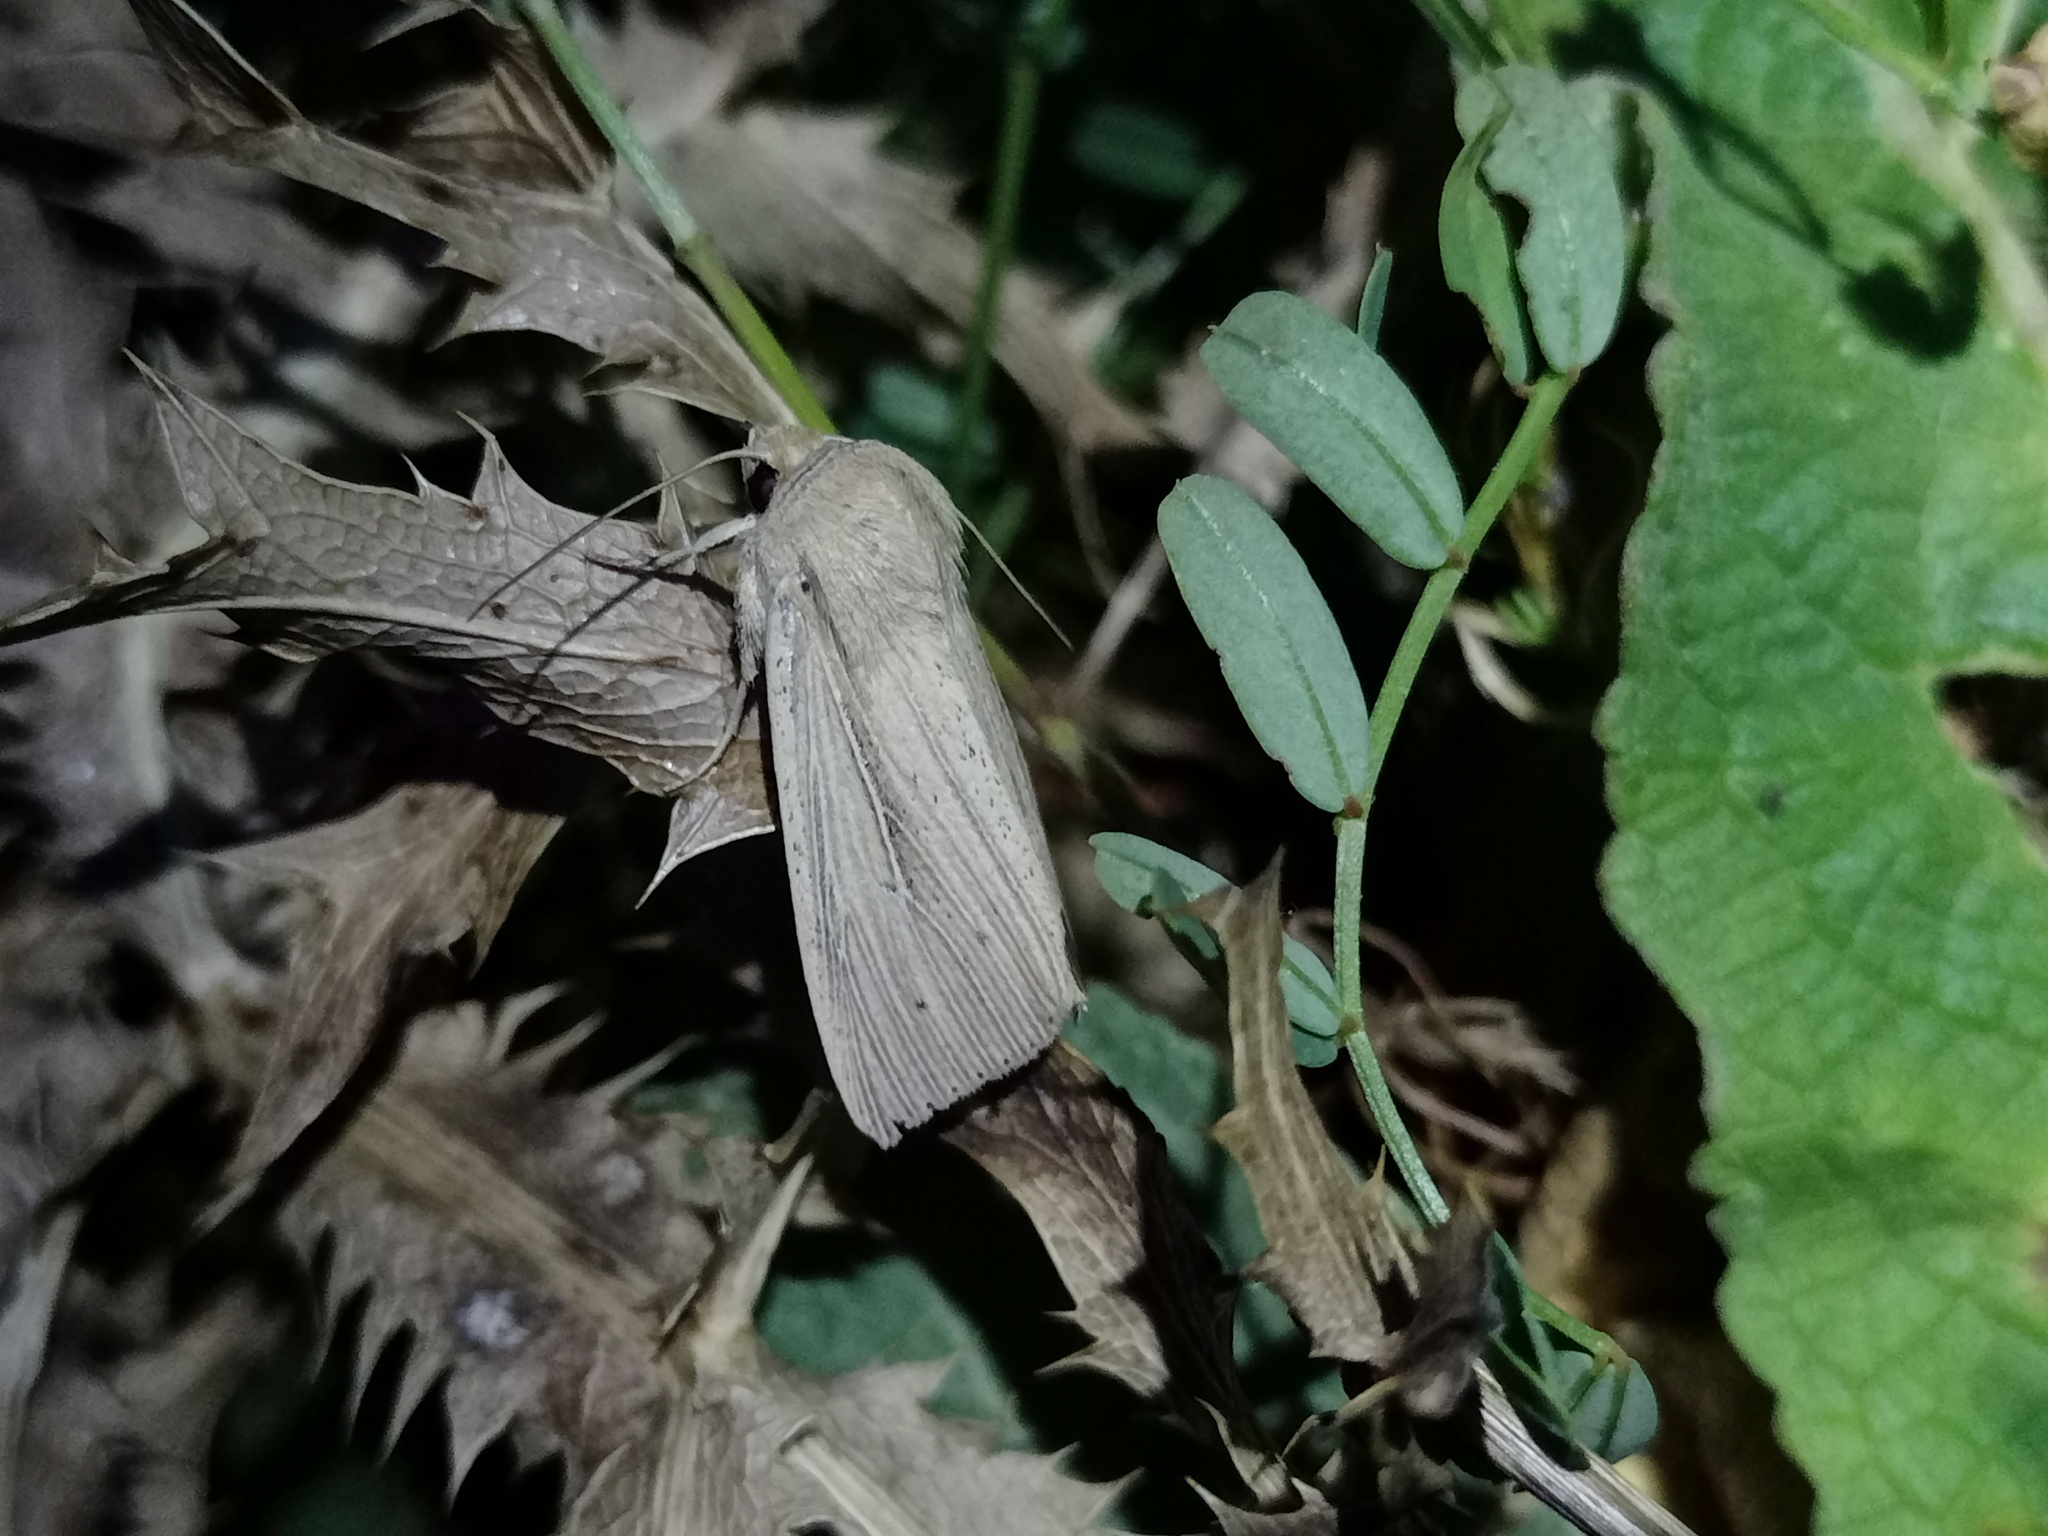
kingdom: Animalia
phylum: Arthropoda
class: Insecta
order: Lepidoptera
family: Noctuidae
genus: Mythimna
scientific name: Mythimna straminea
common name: Southern wainscot
